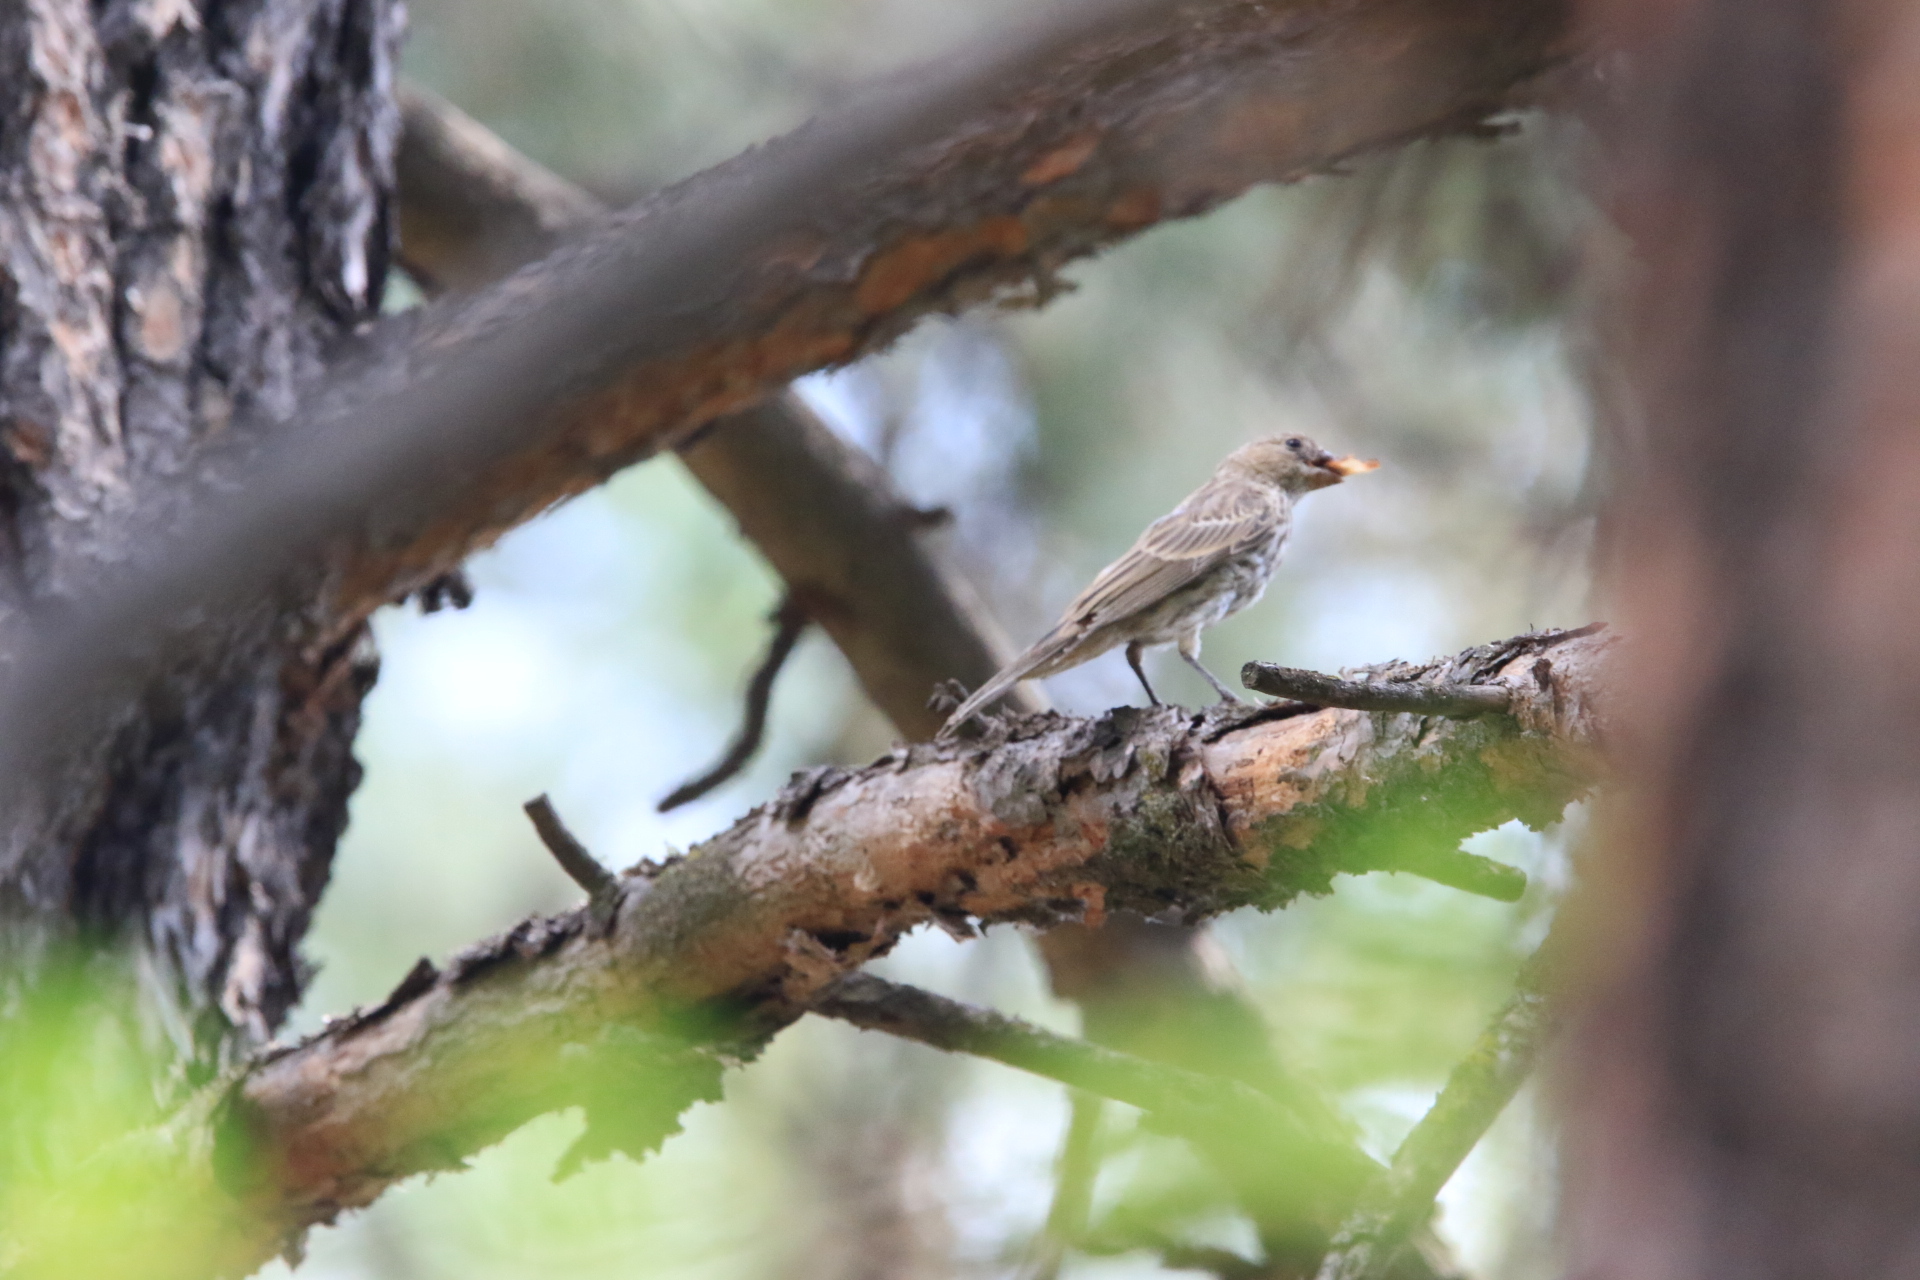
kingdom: Animalia
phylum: Chordata
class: Aves
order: Passeriformes
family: Fringillidae
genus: Haemorhous
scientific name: Haemorhous mexicanus
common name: House finch
